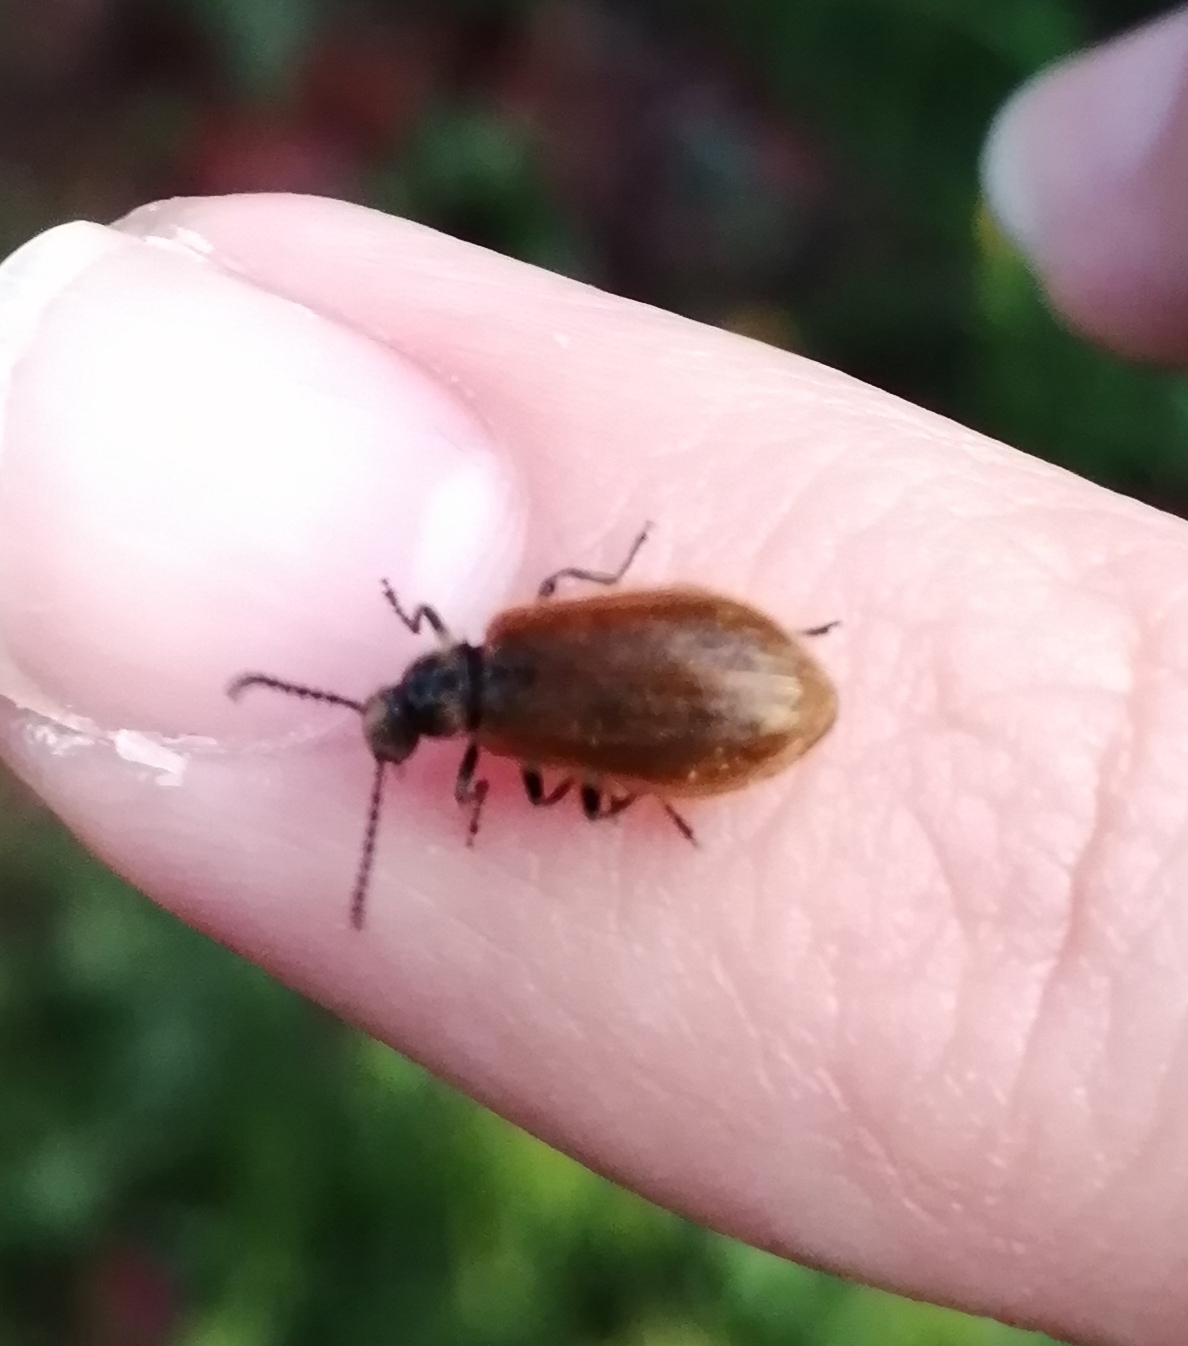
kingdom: Animalia
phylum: Arthropoda
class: Insecta
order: Coleoptera
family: Tenebrionidae
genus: Lagria
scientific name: Lagria hirta
